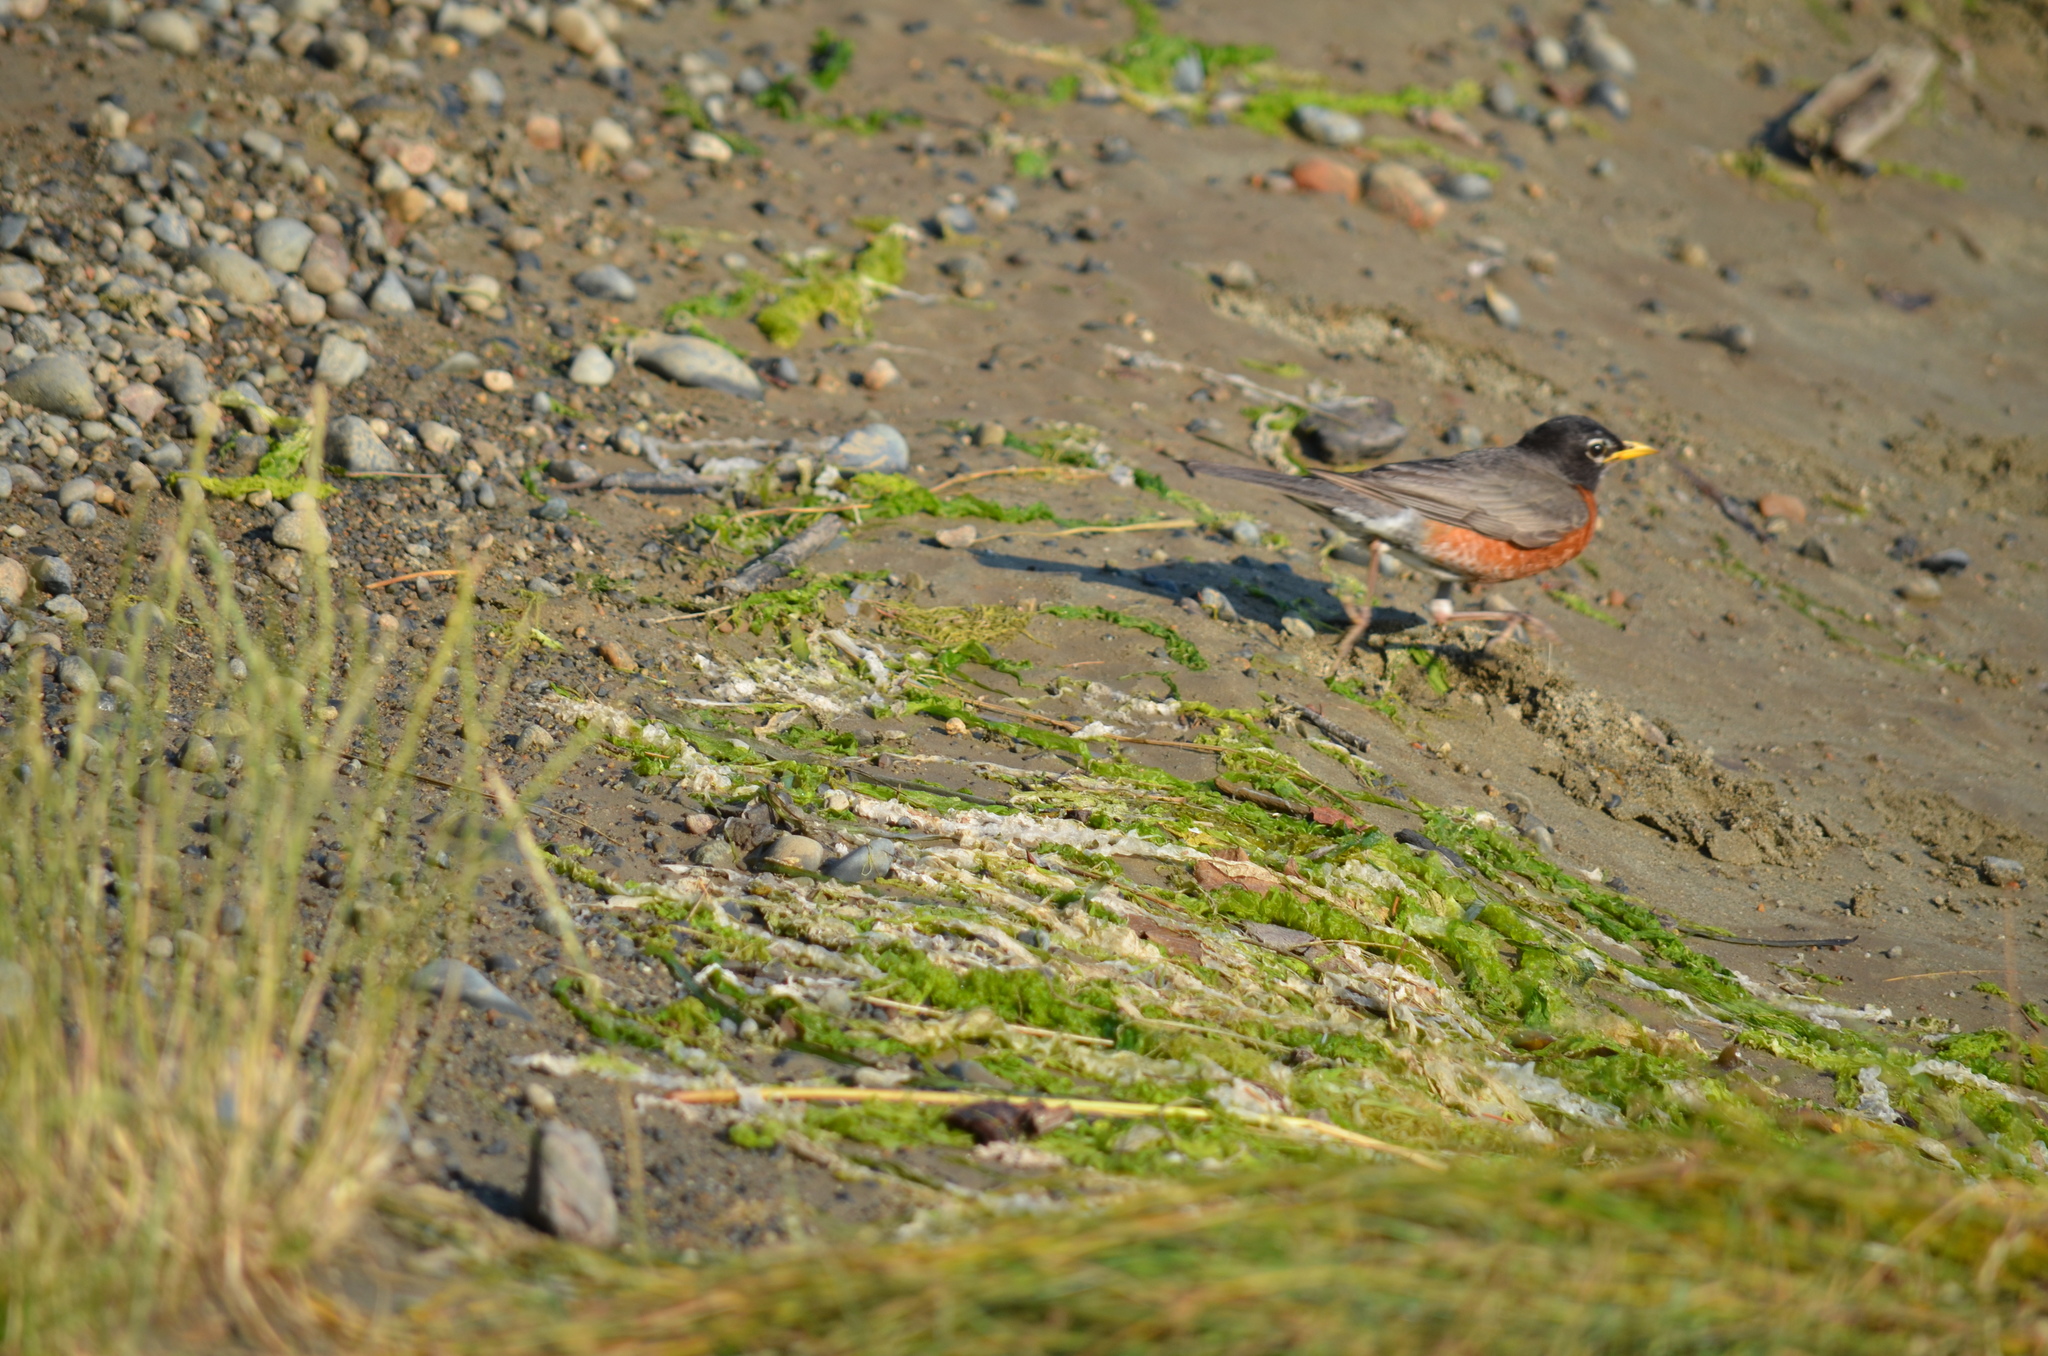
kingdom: Animalia
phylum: Chordata
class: Aves
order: Passeriformes
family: Turdidae
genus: Turdus
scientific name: Turdus migratorius
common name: American robin
